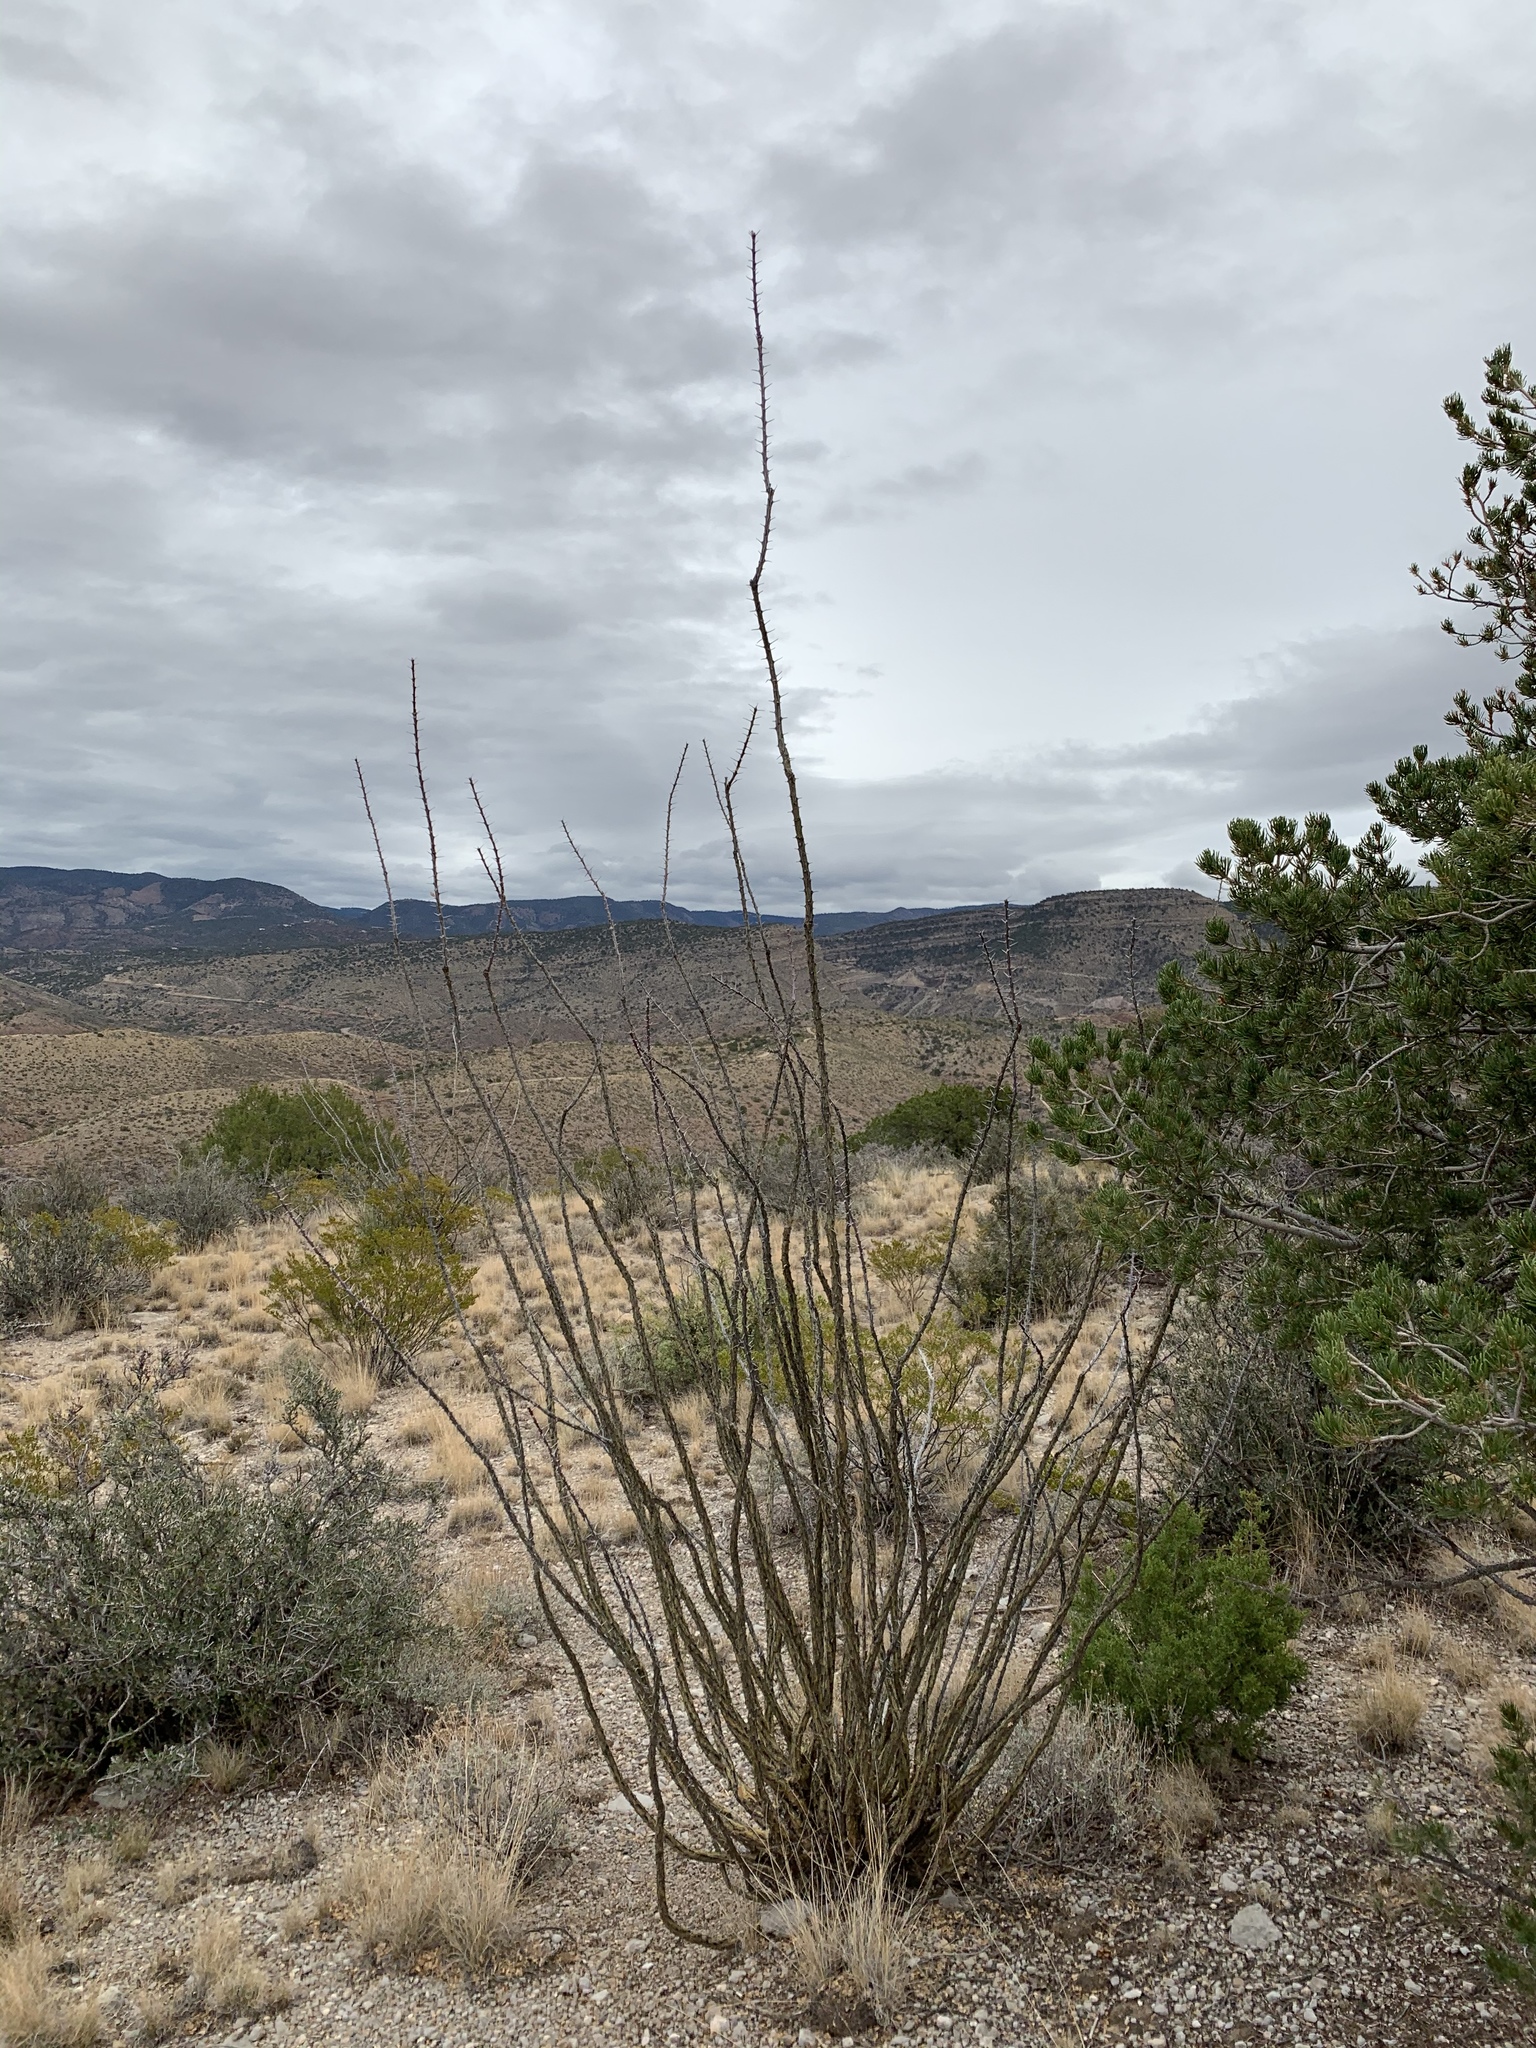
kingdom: Plantae
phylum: Tracheophyta
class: Magnoliopsida
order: Ericales
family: Fouquieriaceae
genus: Fouquieria
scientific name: Fouquieria splendens
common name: Vine-cactus
